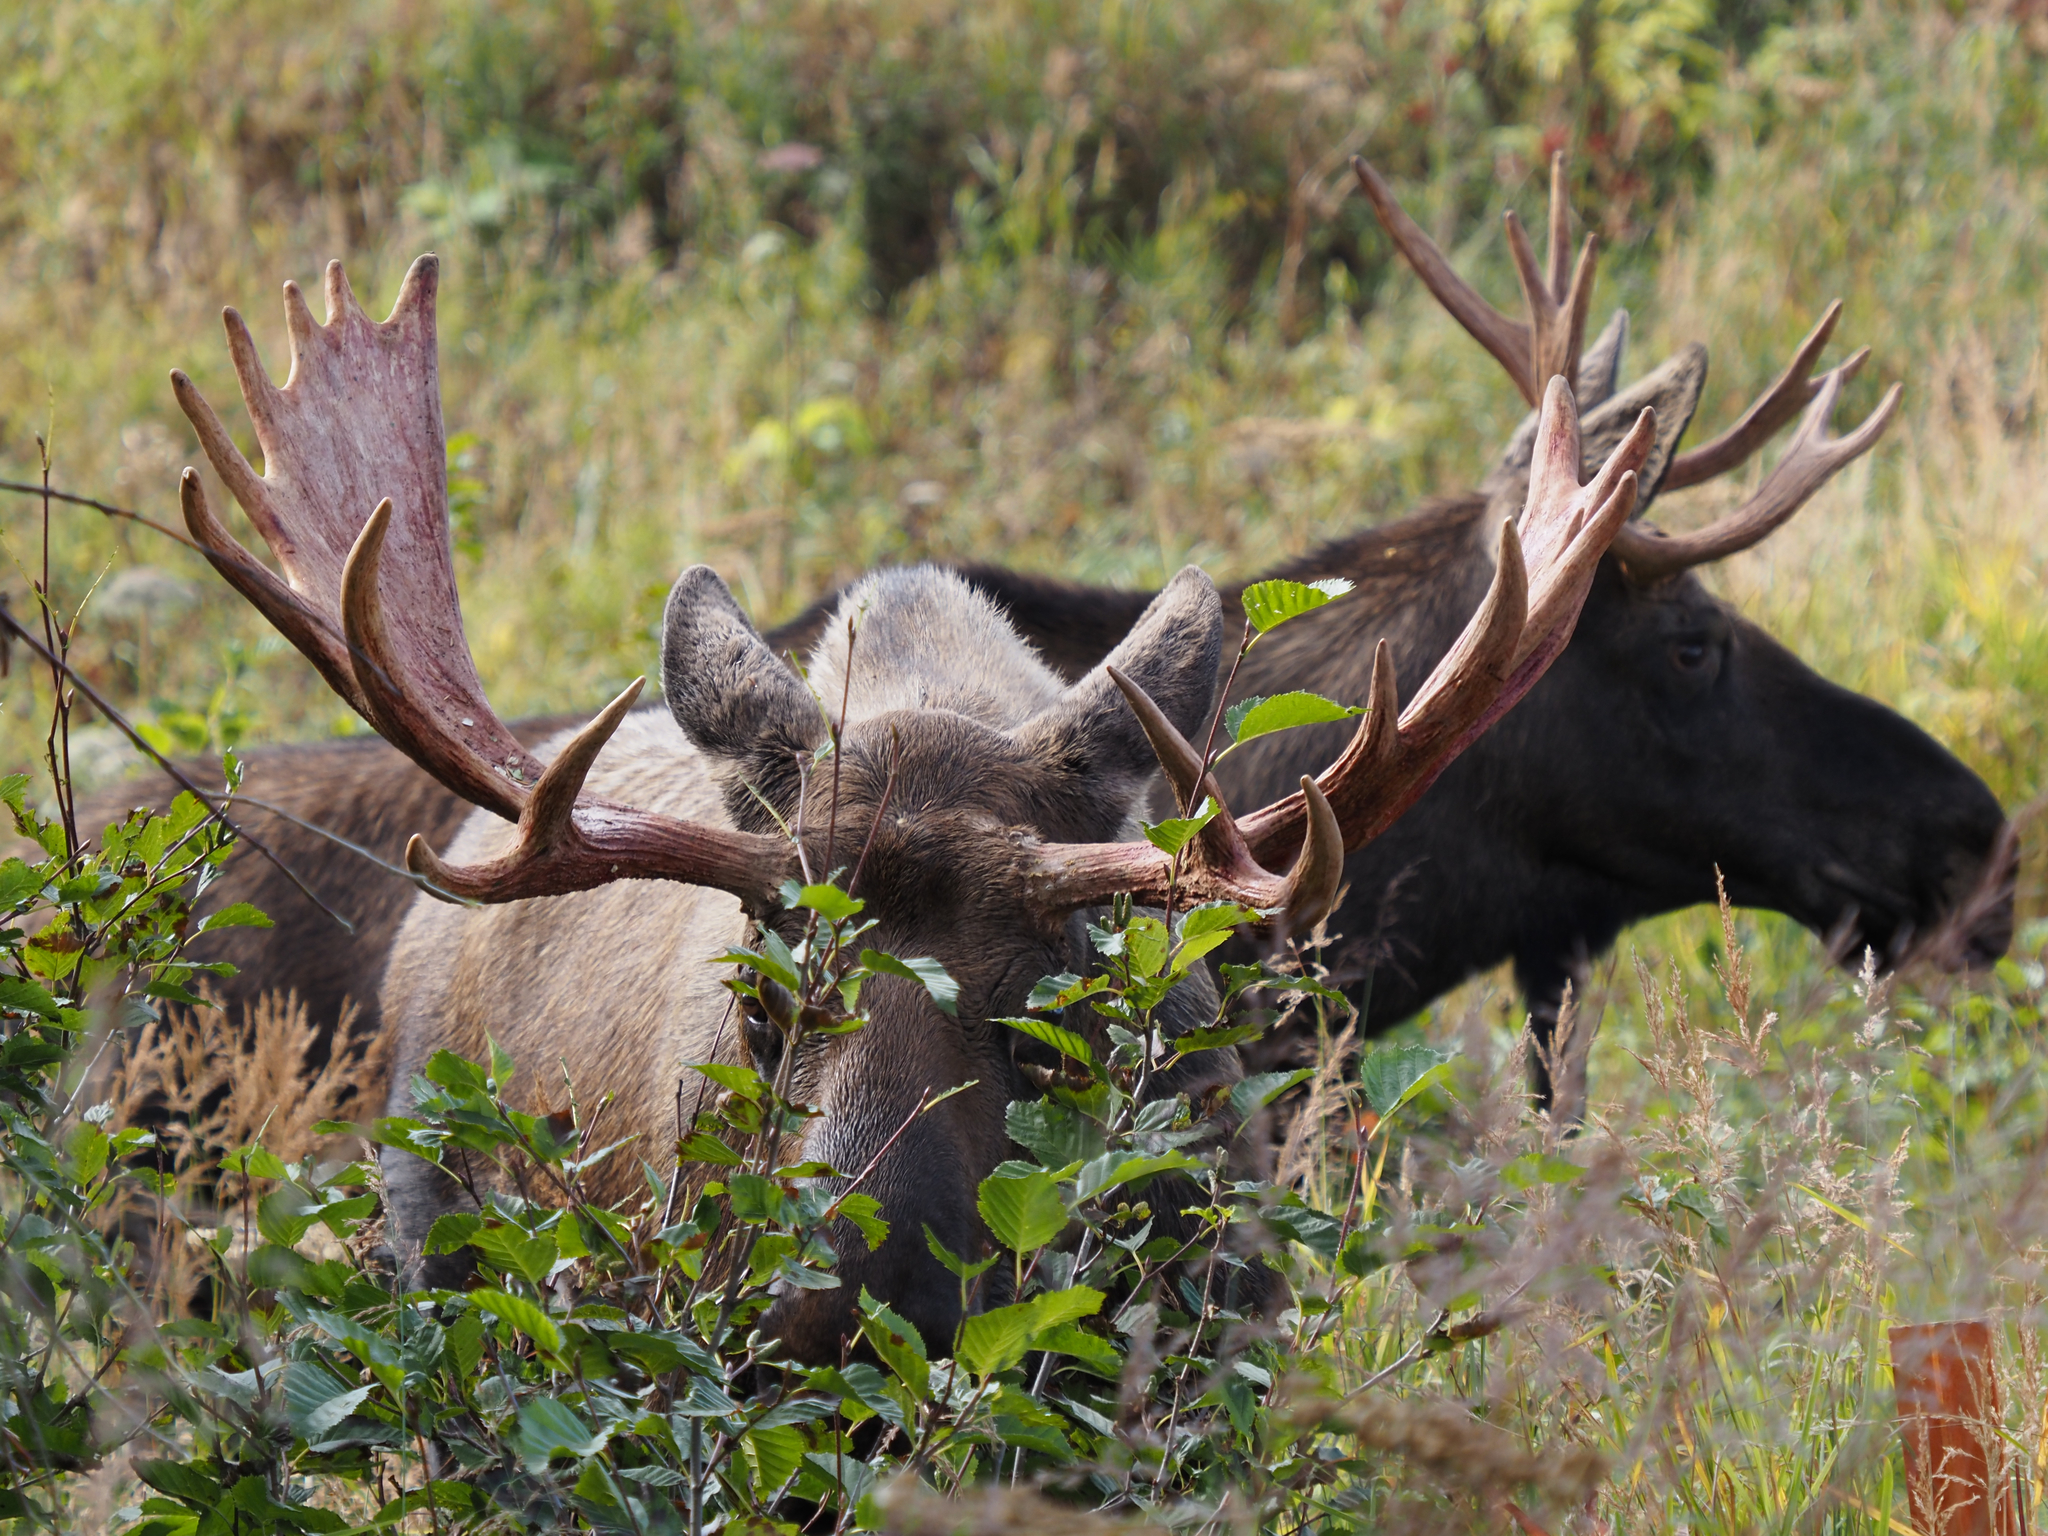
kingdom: Animalia
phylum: Chordata
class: Mammalia
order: Artiodactyla
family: Cervidae
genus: Alces
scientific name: Alces alces
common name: Moose
